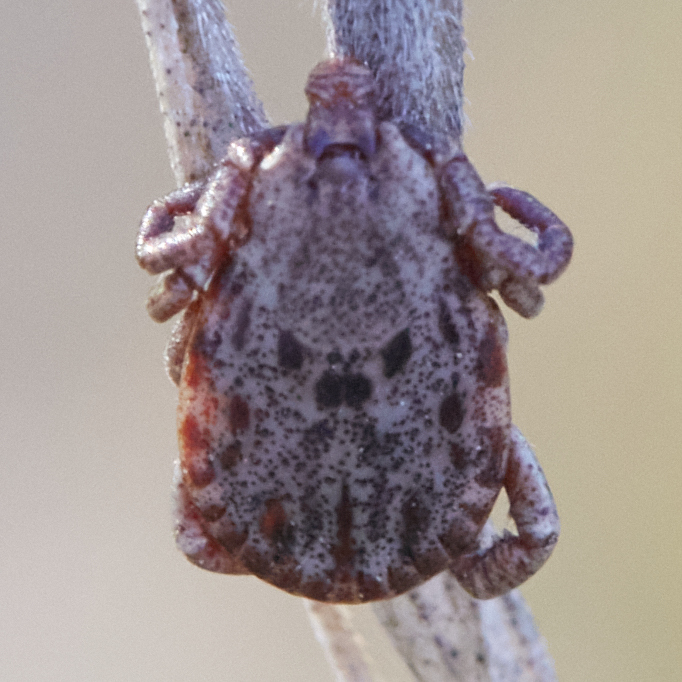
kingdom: Animalia
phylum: Arthropoda
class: Arachnida
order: Ixodida
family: Ixodidae
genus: Dermacentor
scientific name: Dermacentor occidentalis
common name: Net tick
